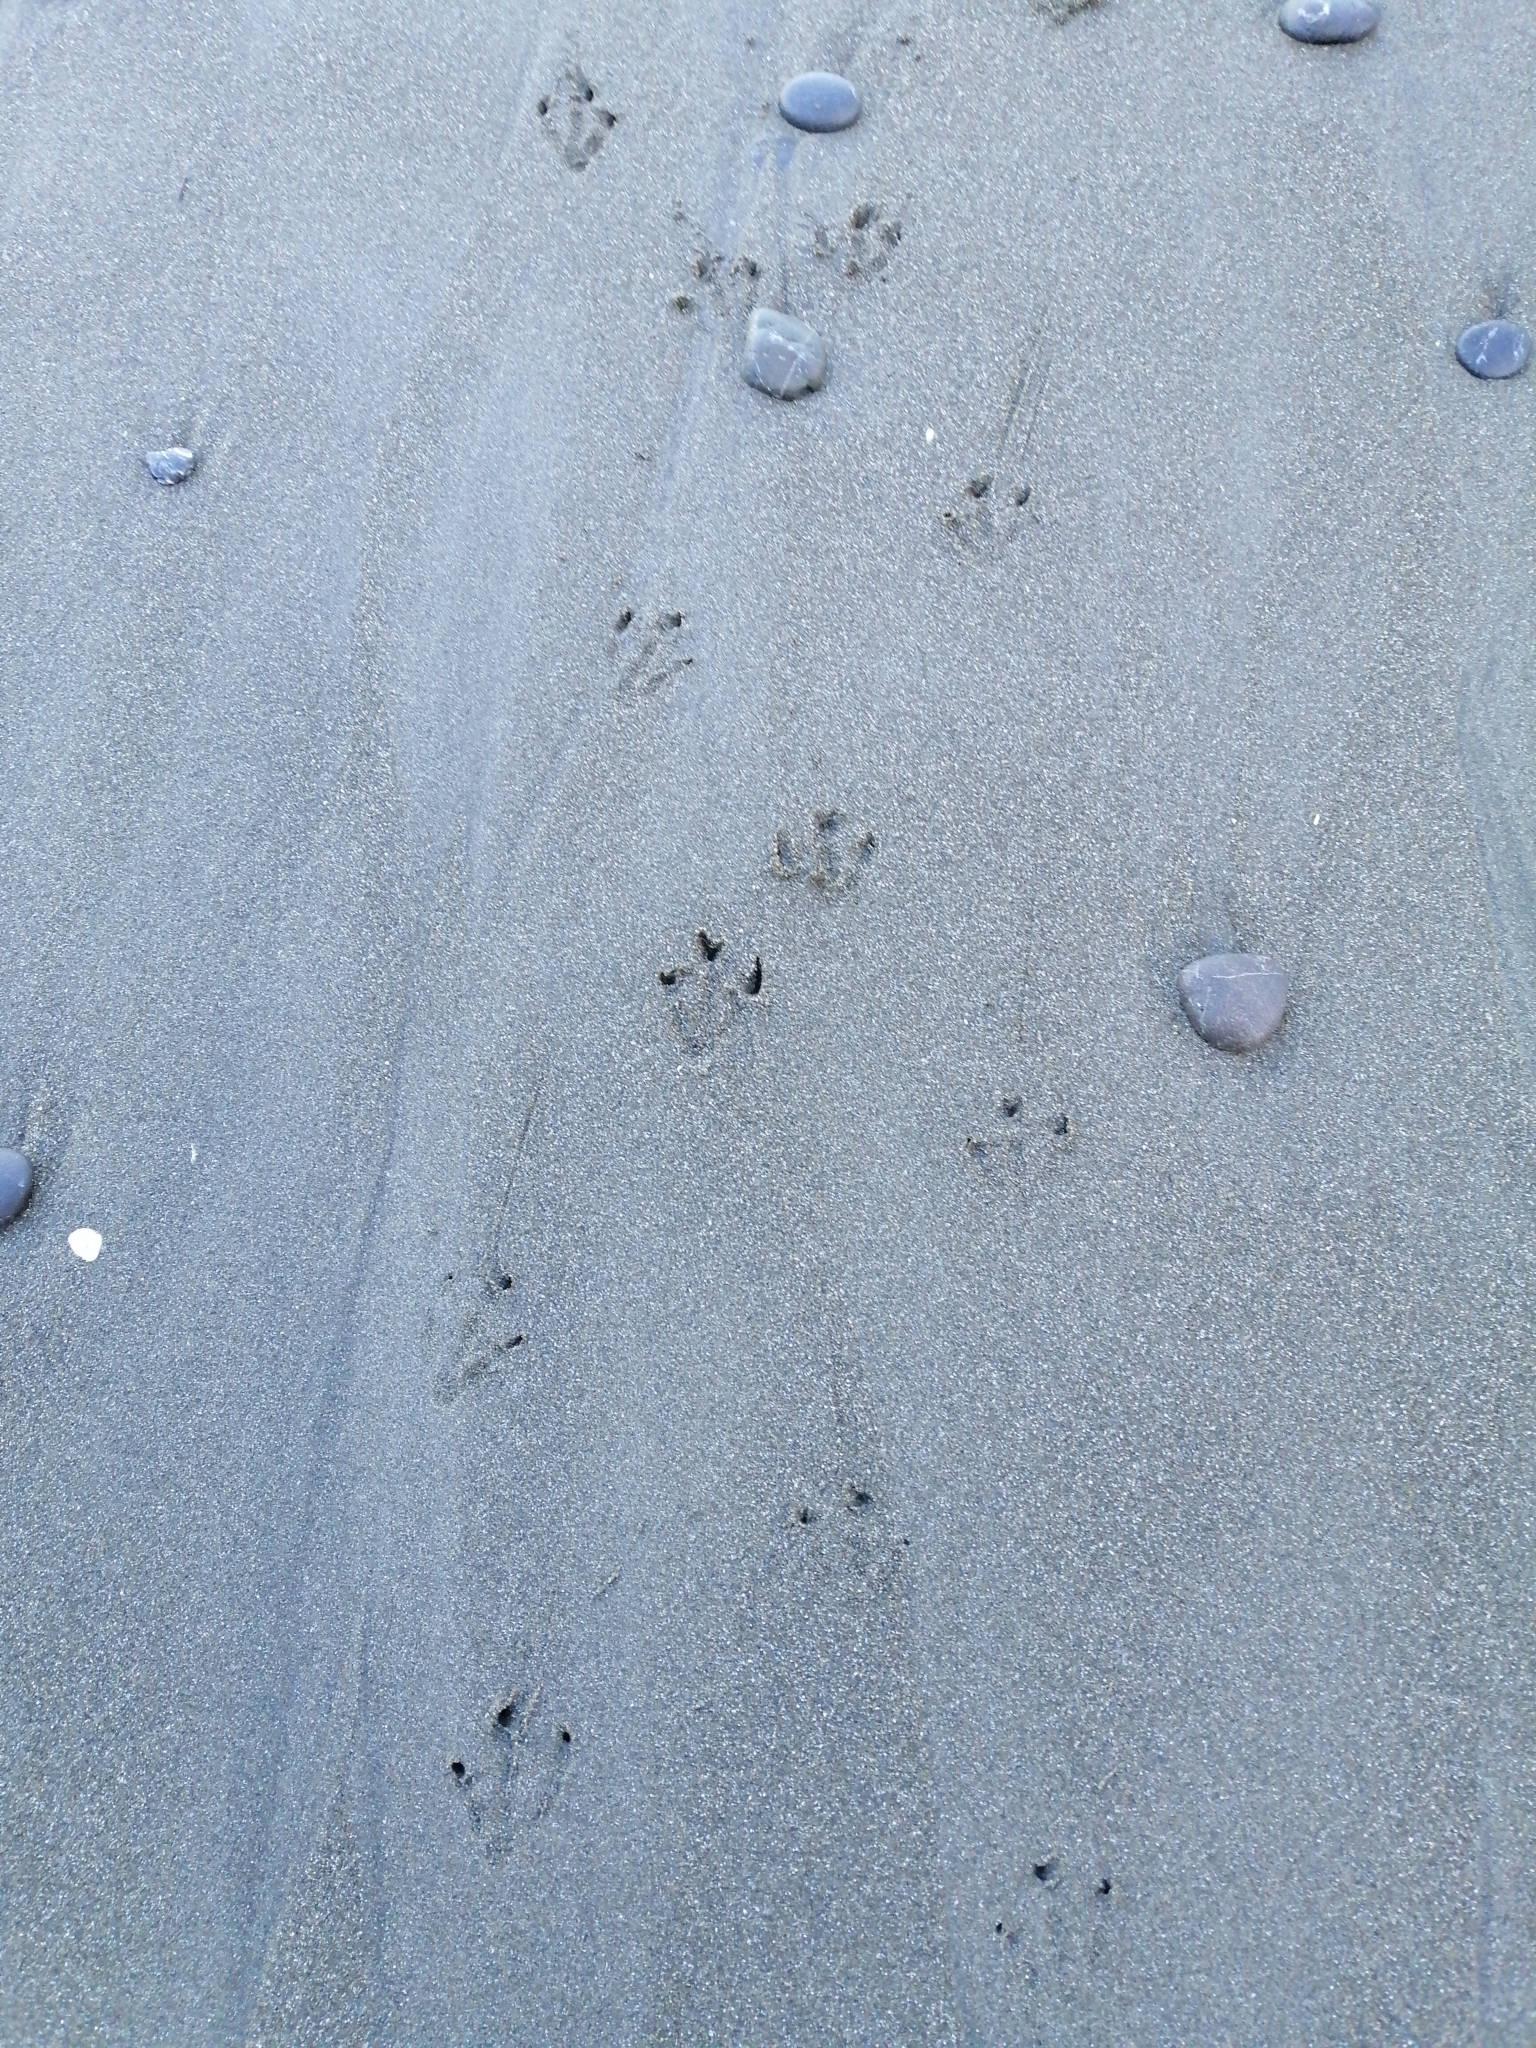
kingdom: Animalia
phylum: Chordata
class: Aves
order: Sphenisciformes
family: Spheniscidae
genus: Eudyptula
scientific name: Eudyptula minor
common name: Little penguin
